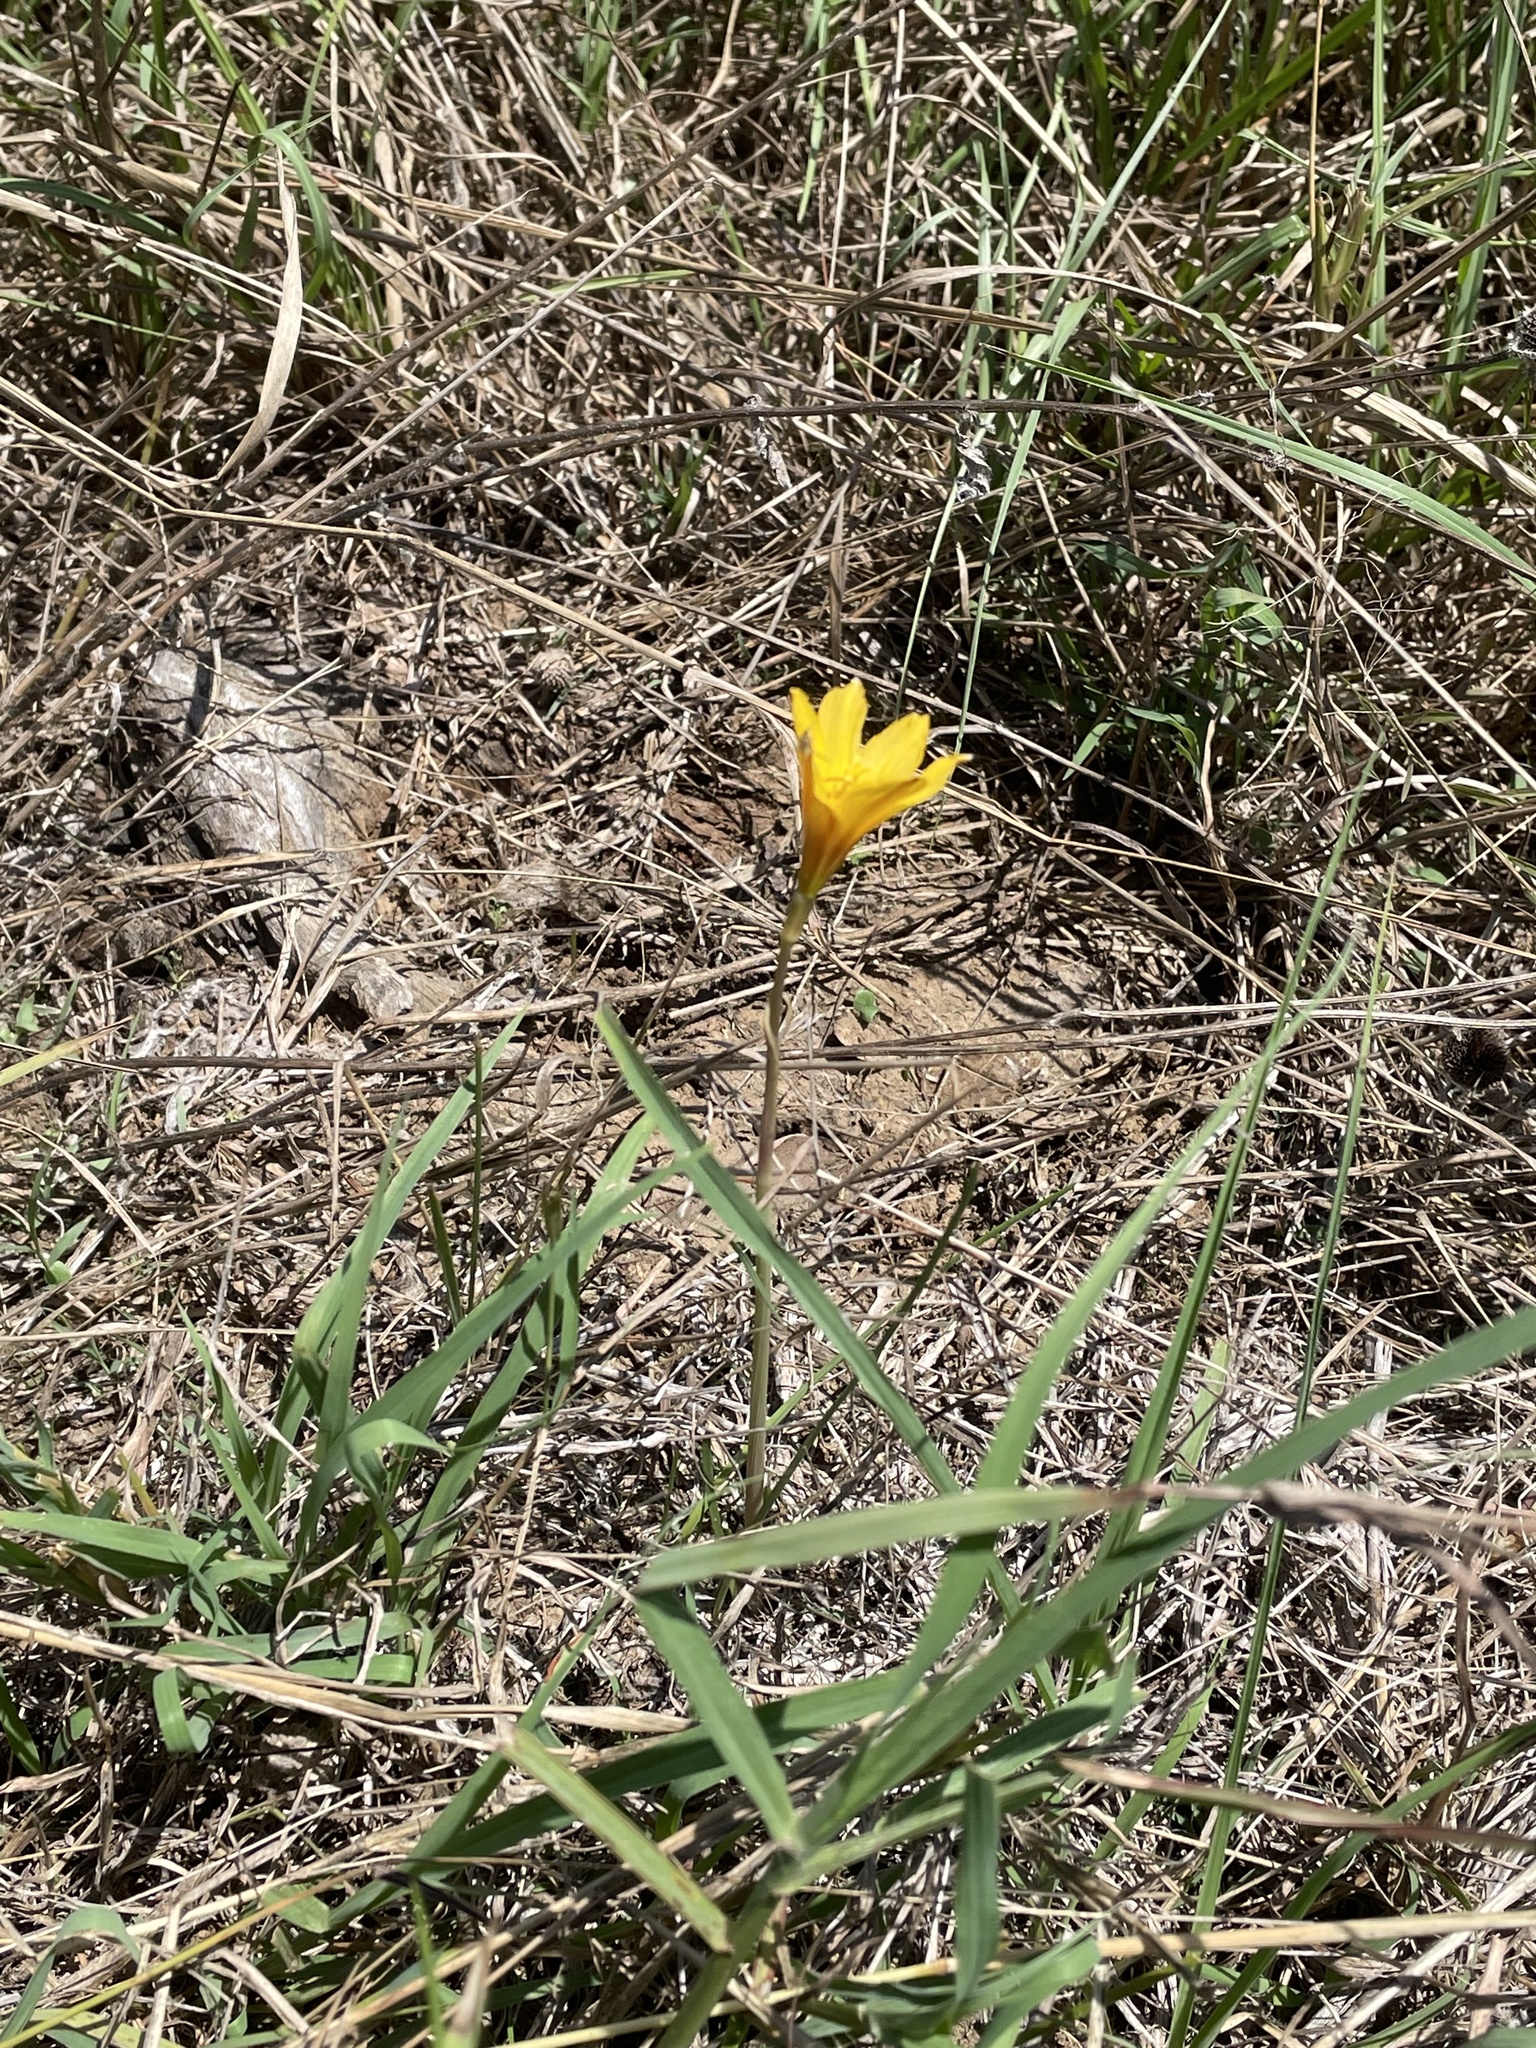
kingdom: Plantae
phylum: Tracheophyta
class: Liliopsida
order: Asparagales
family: Amaryllidaceae
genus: Zephyranthes
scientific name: Zephyranthes tubispatha
